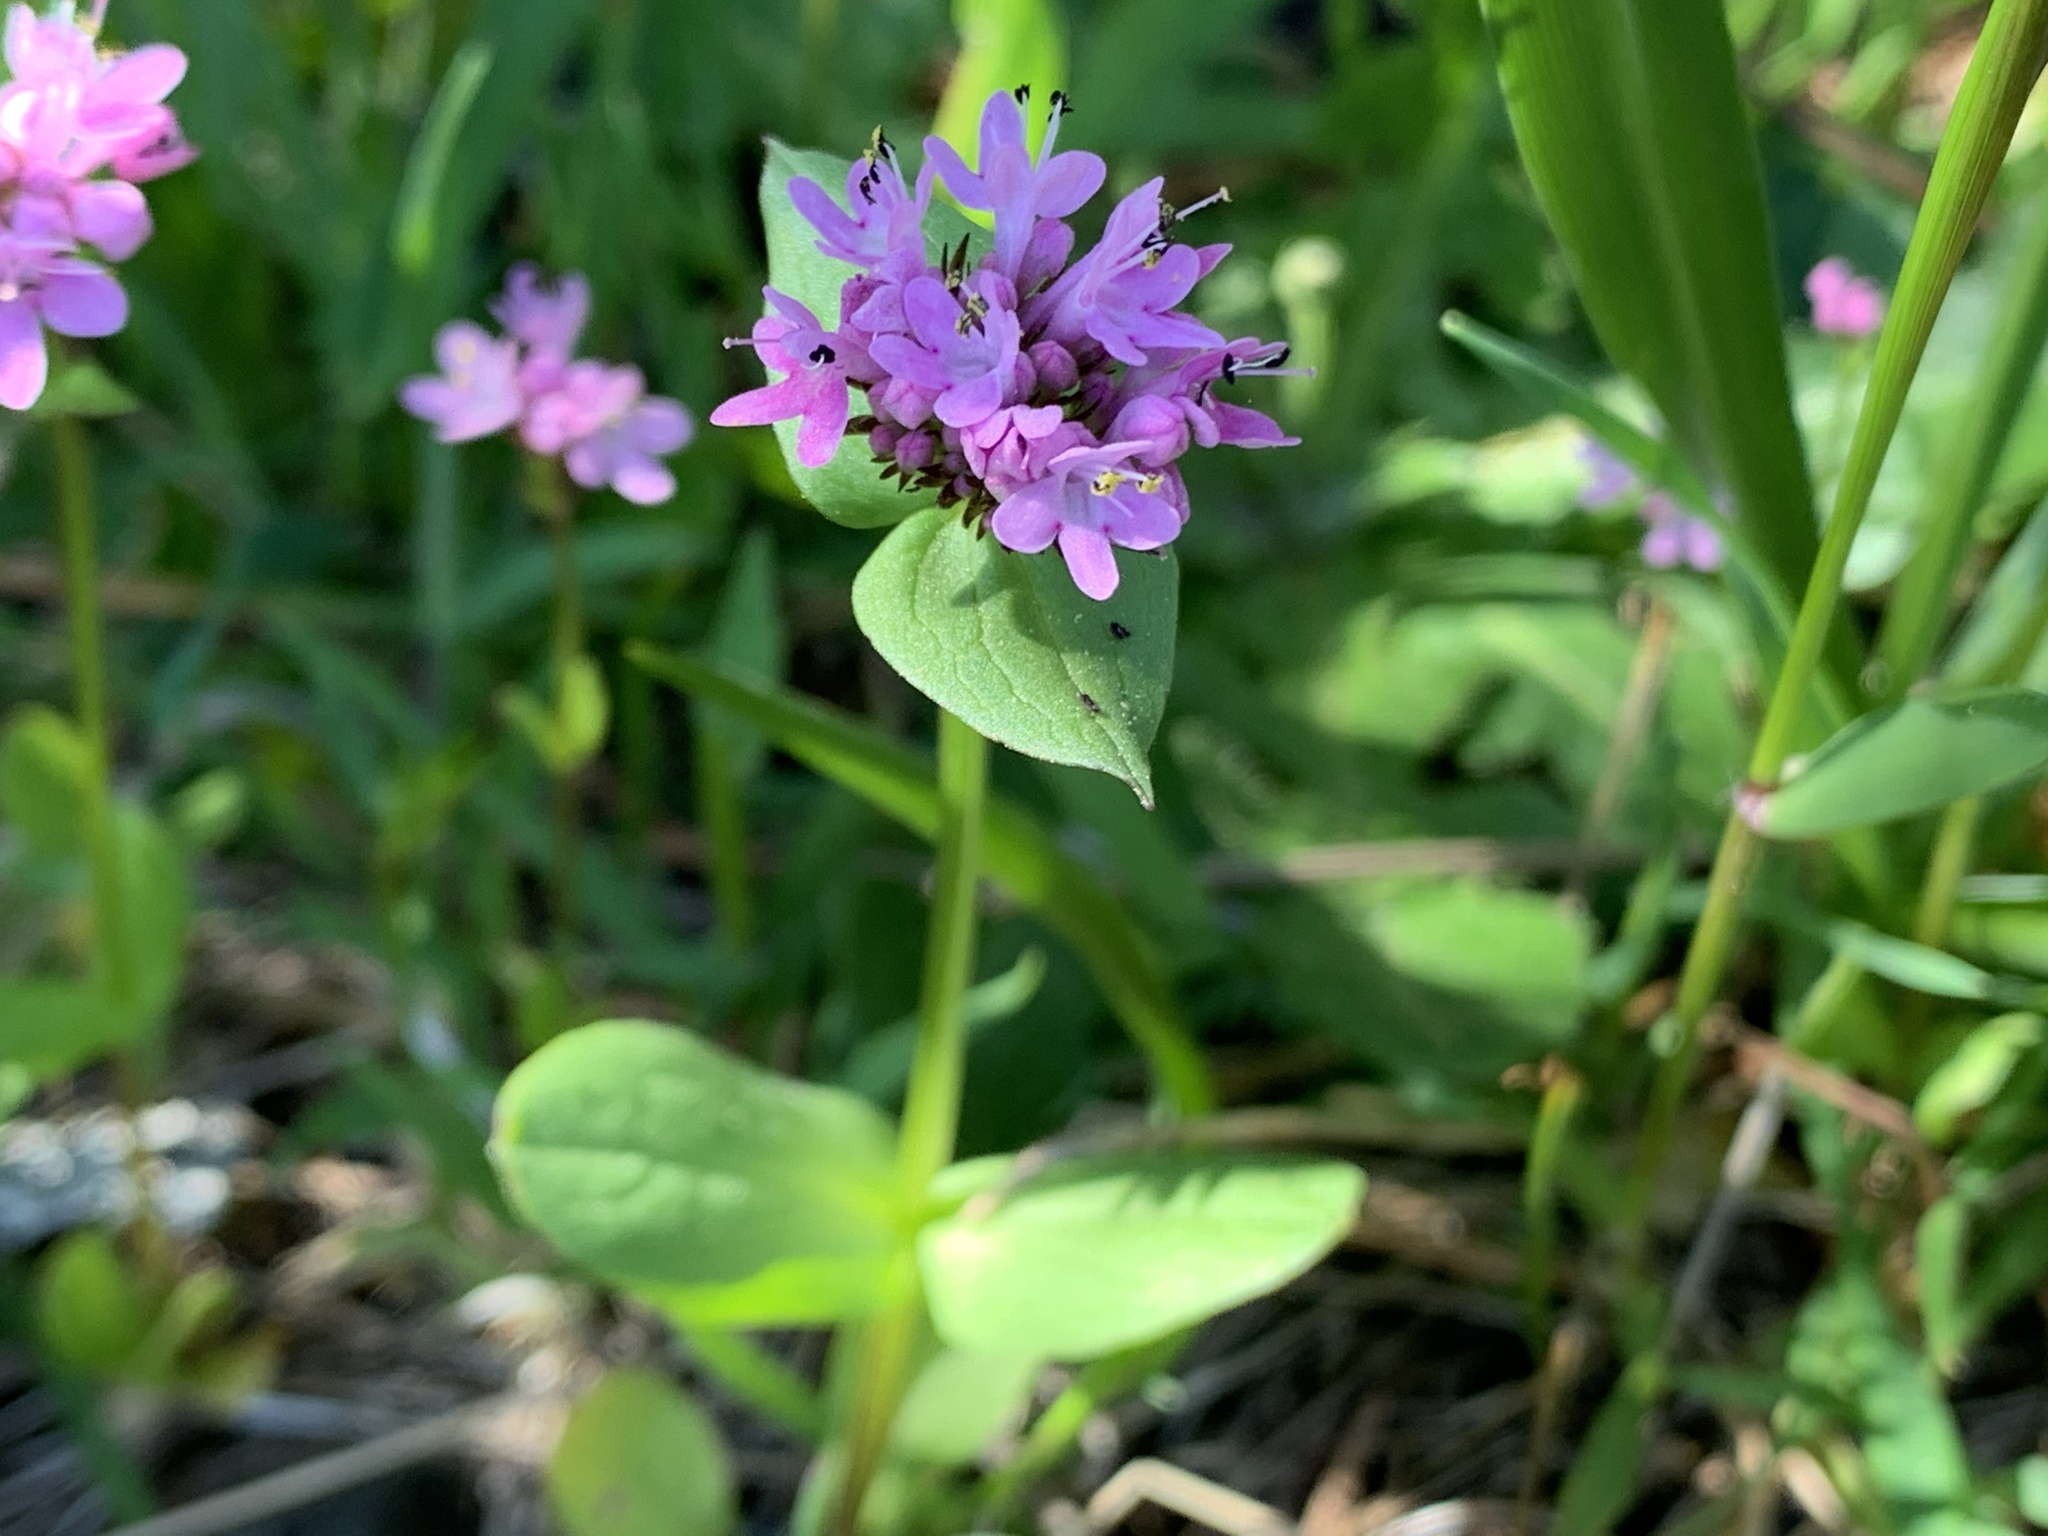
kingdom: Plantae
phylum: Tracheophyta
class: Magnoliopsida
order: Dipsacales
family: Caprifoliaceae
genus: Plectritis
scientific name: Plectritis congesta
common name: Pink plectritis
